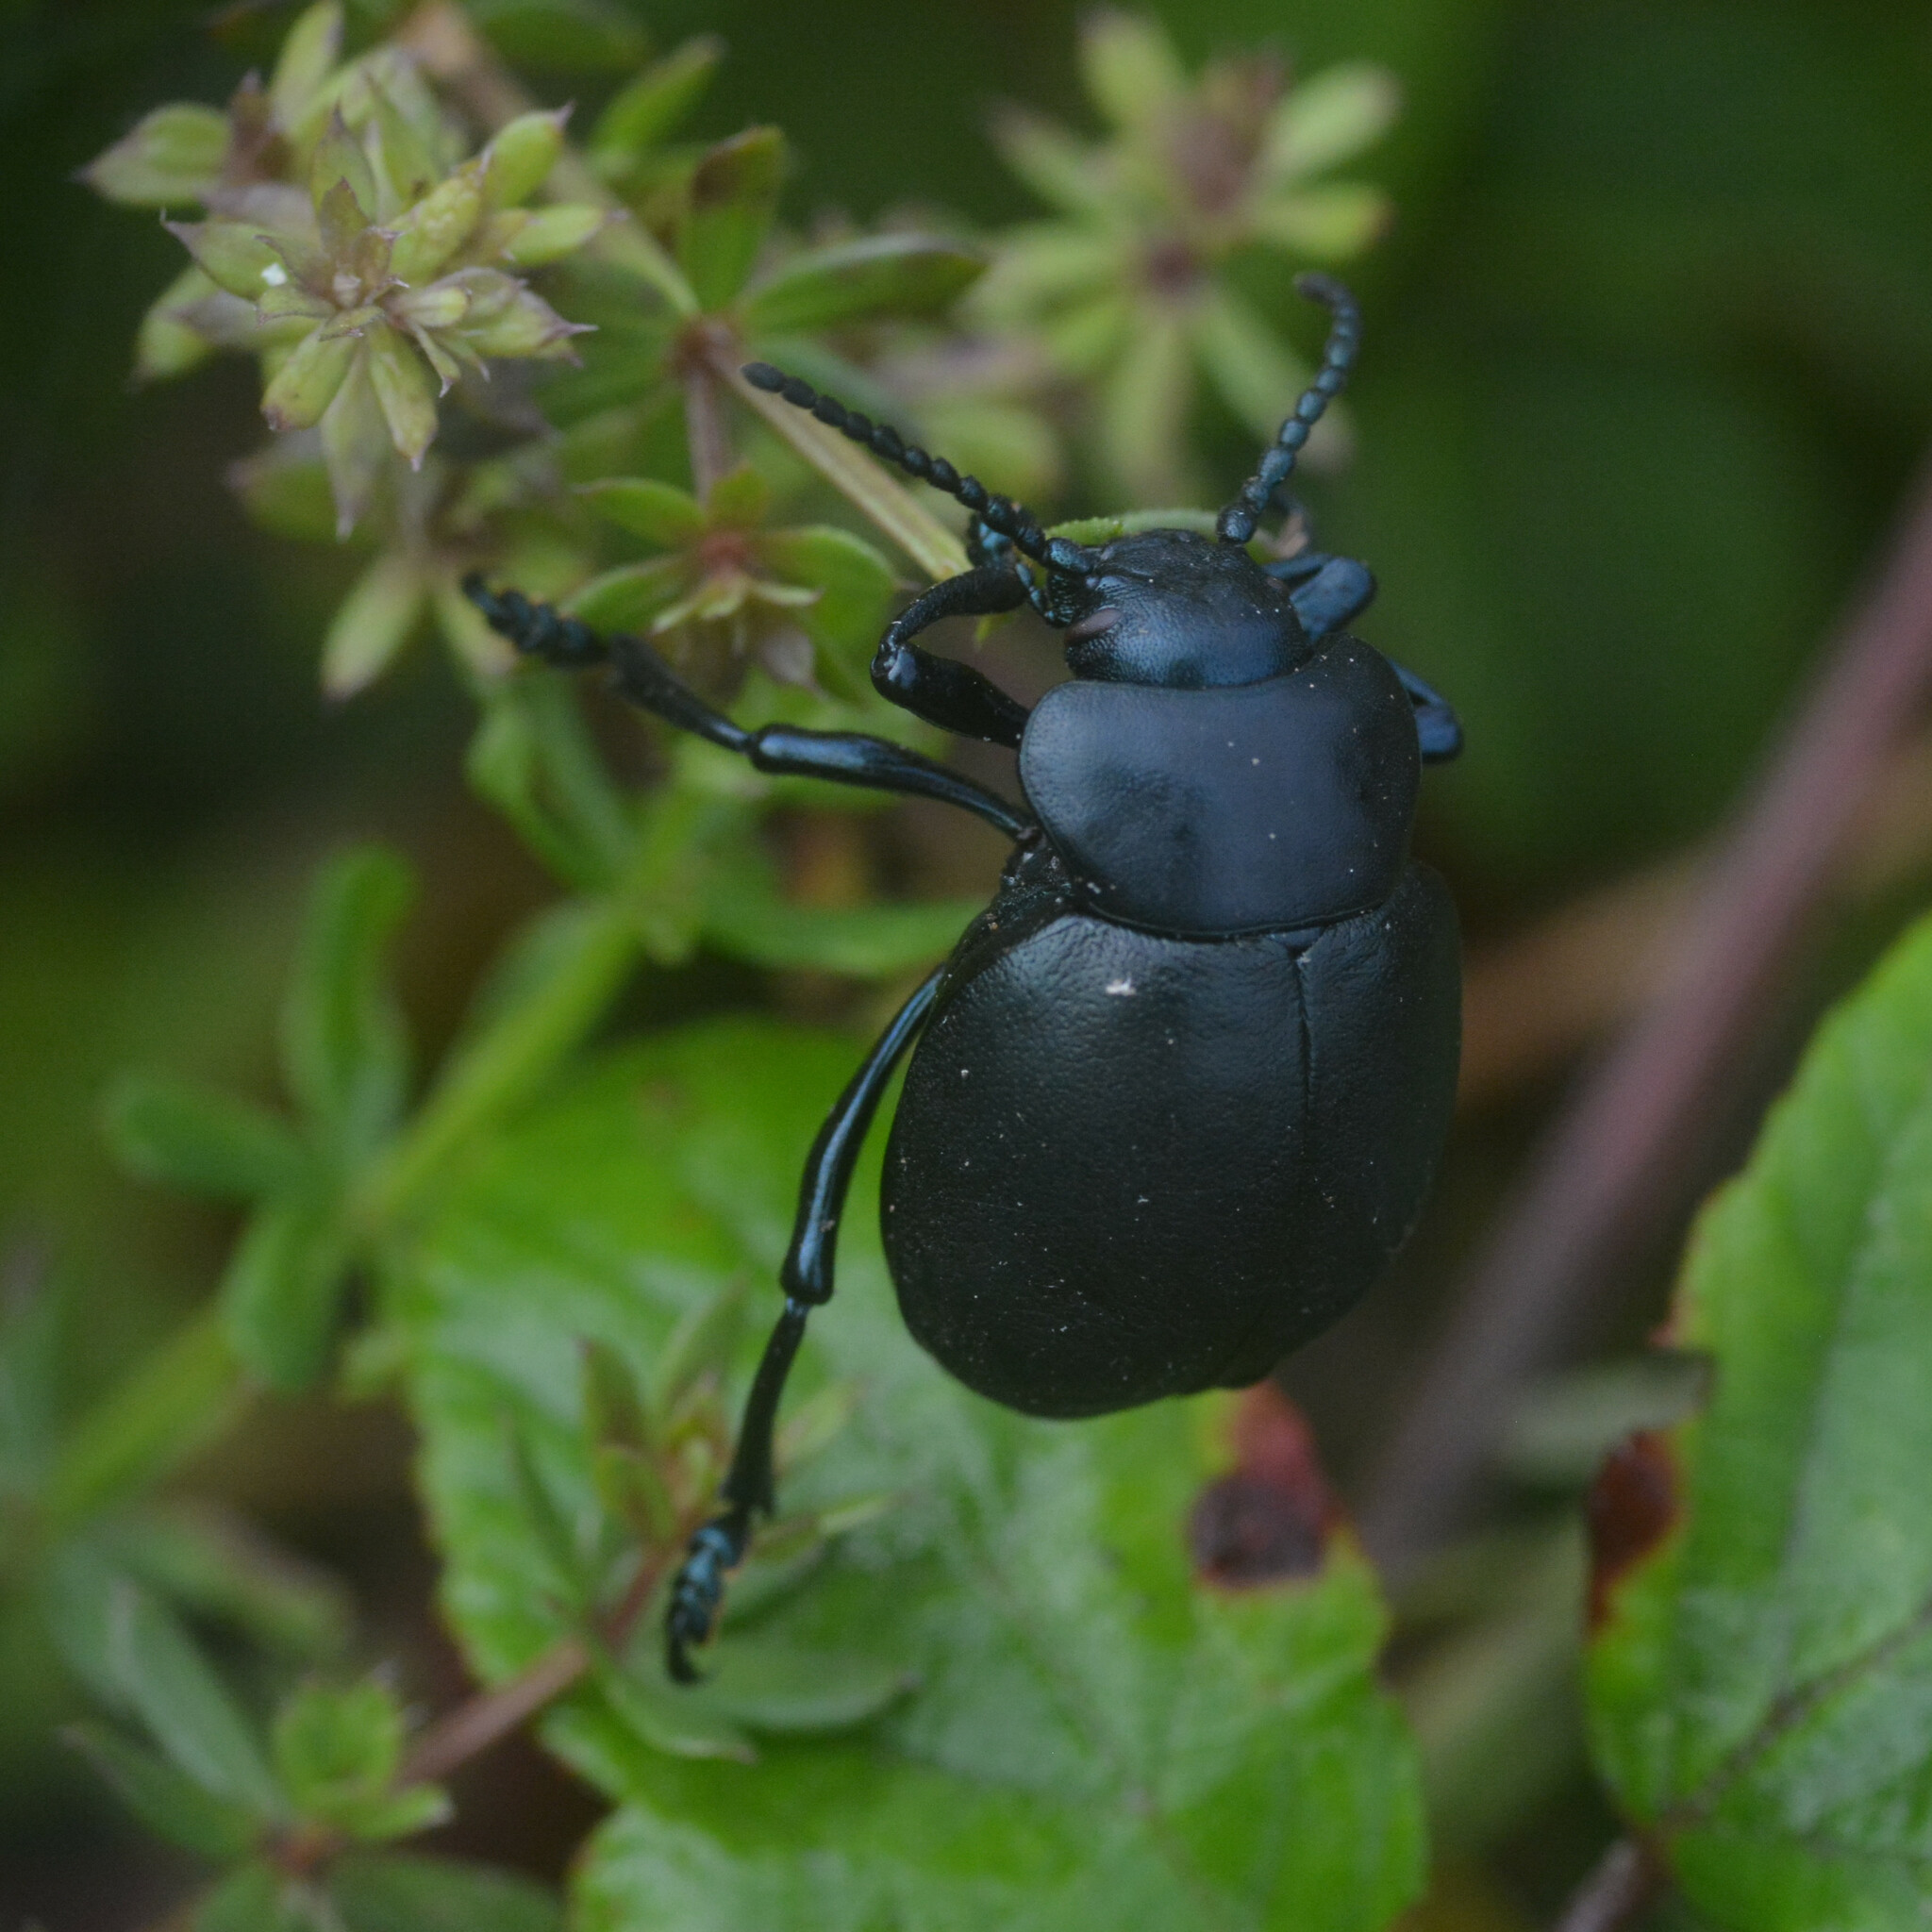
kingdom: Animalia
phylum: Arthropoda
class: Insecta
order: Coleoptera
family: Chrysomelidae
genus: Timarcha
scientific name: Timarcha tenebricosa
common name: Bloody-nosed beetle
